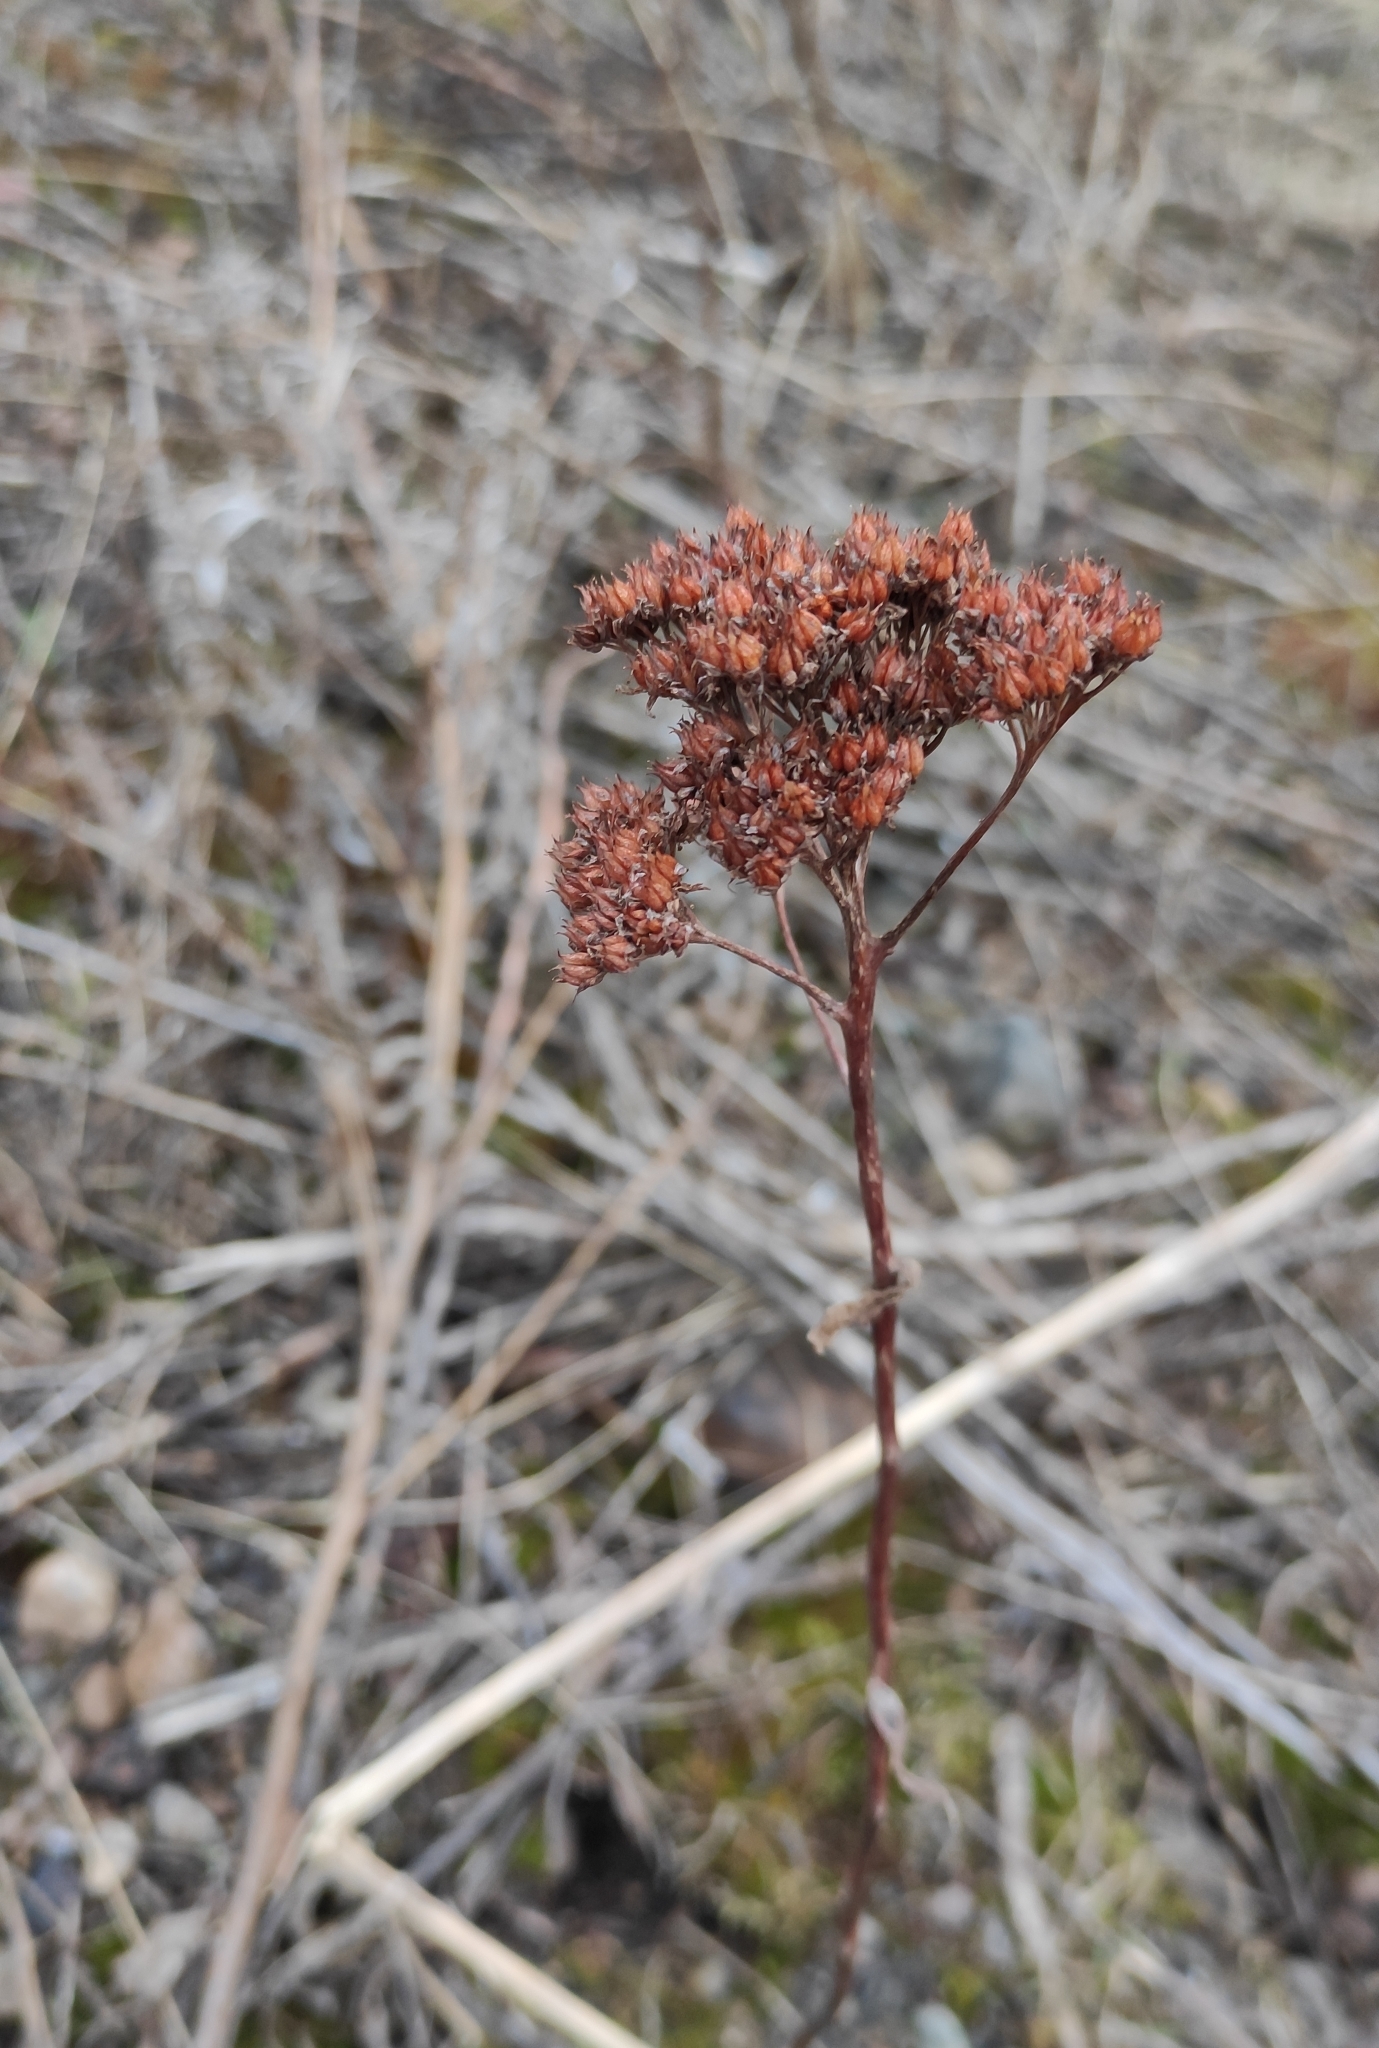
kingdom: Plantae
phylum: Tracheophyta
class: Magnoliopsida
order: Saxifragales
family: Crassulaceae
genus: Hylotelephium
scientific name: Hylotelephium telephium
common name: Live-forever
